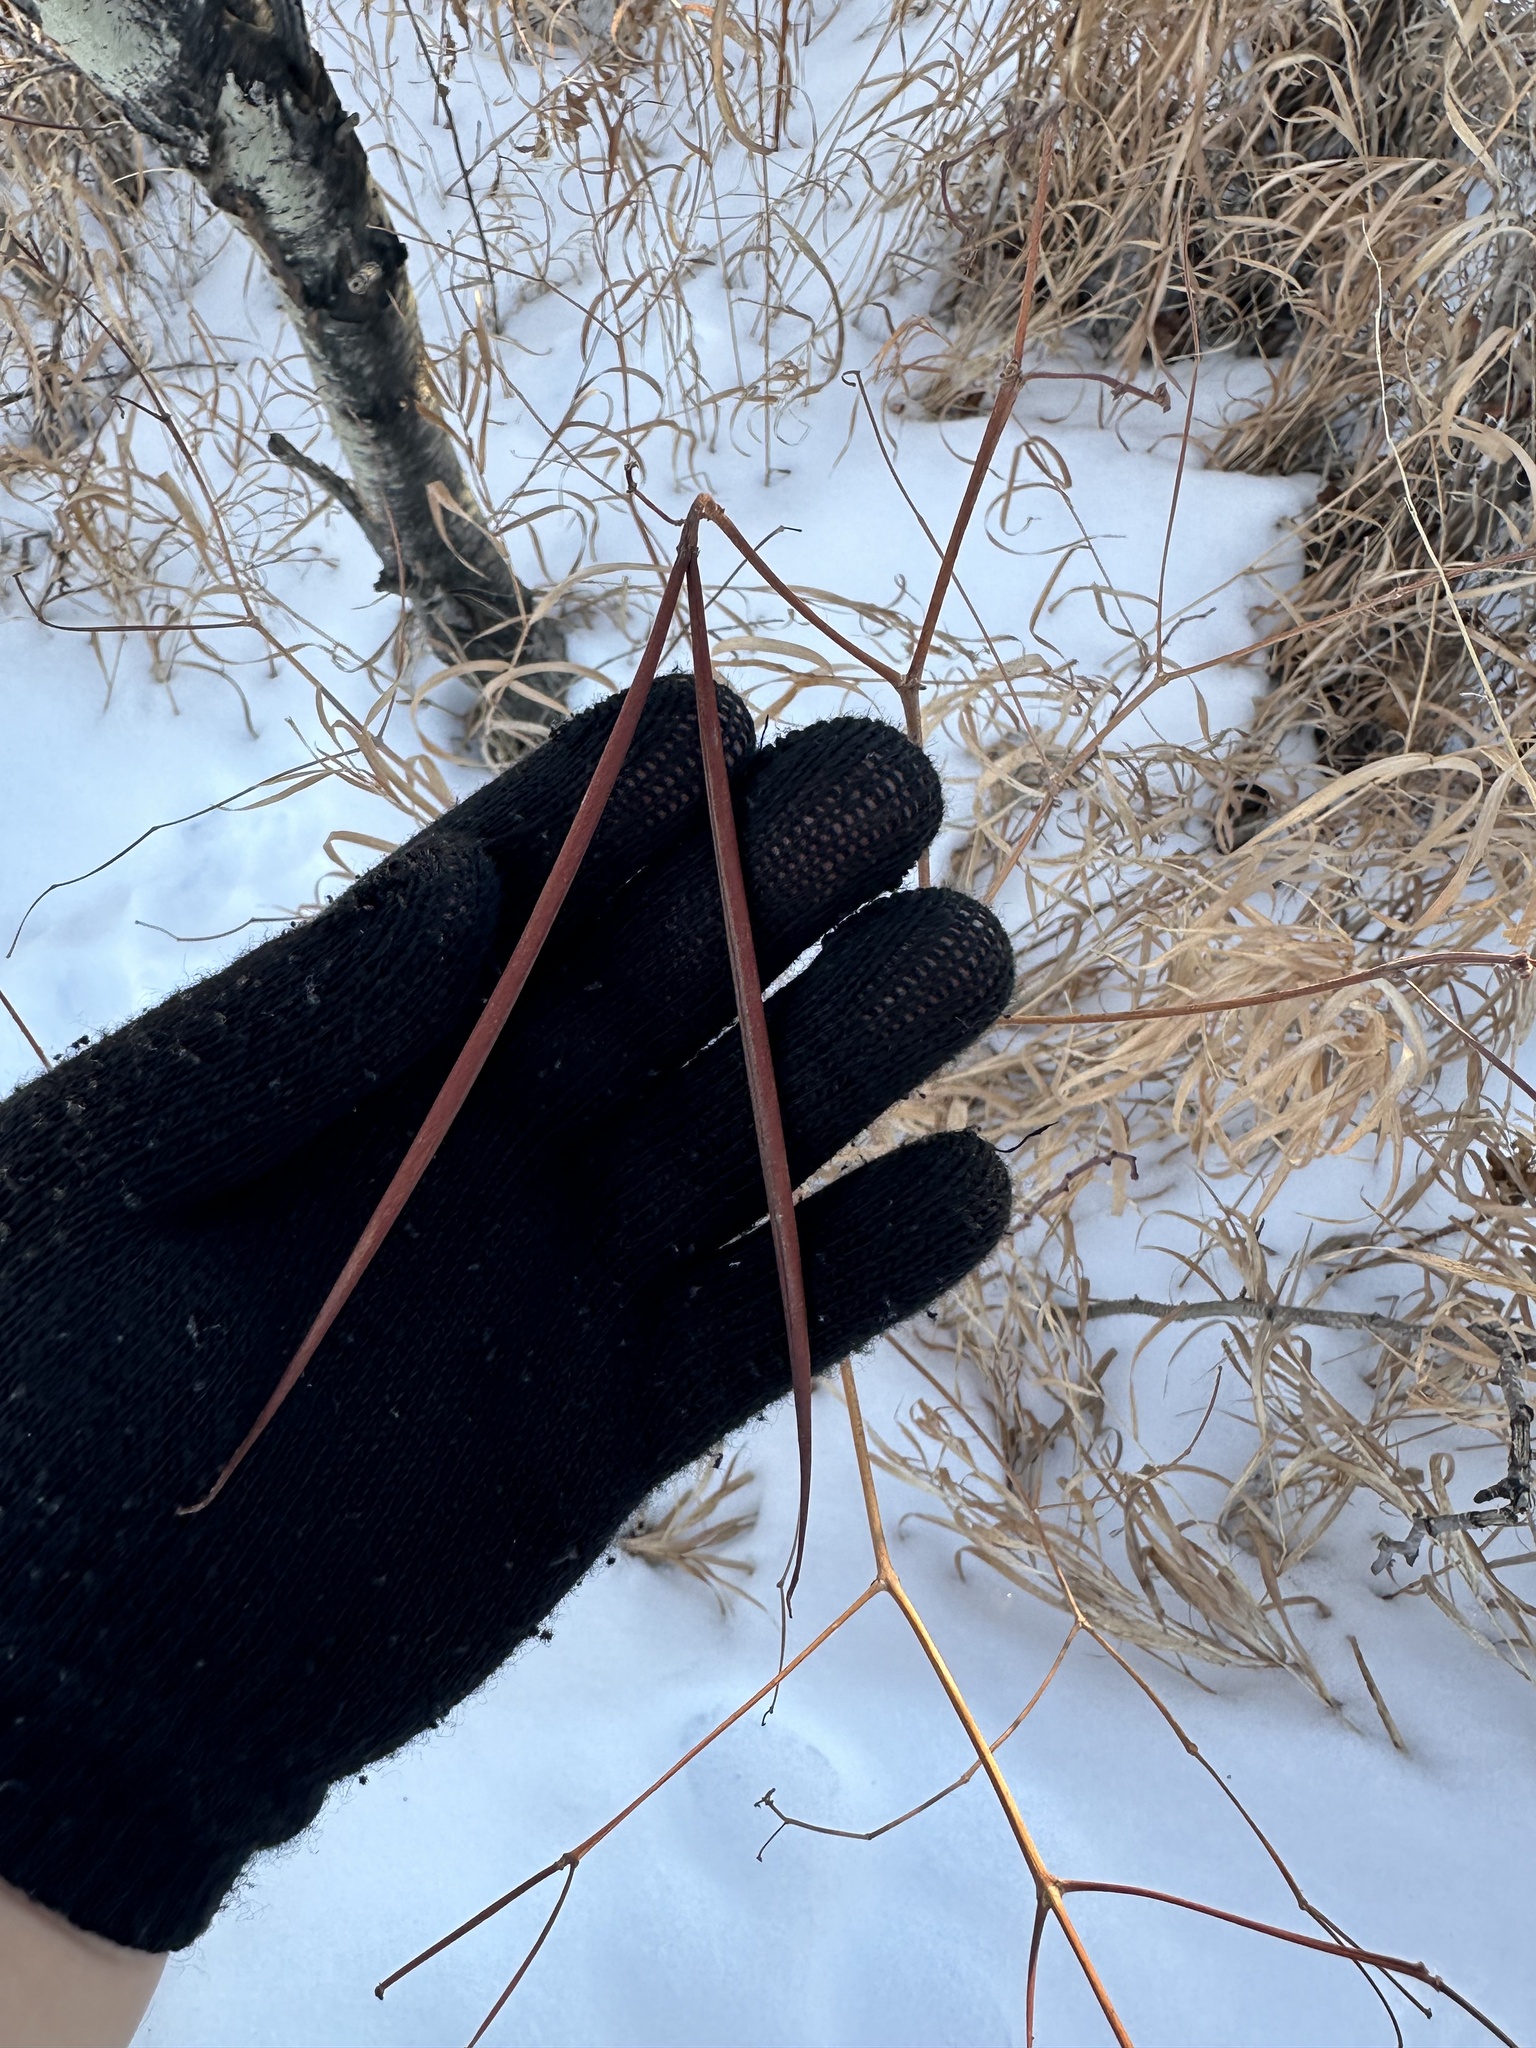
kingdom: Plantae
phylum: Tracheophyta
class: Magnoliopsida
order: Gentianales
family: Apocynaceae
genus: Apocynum
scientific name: Apocynum androsaemifolium
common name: Spreading dogbane
